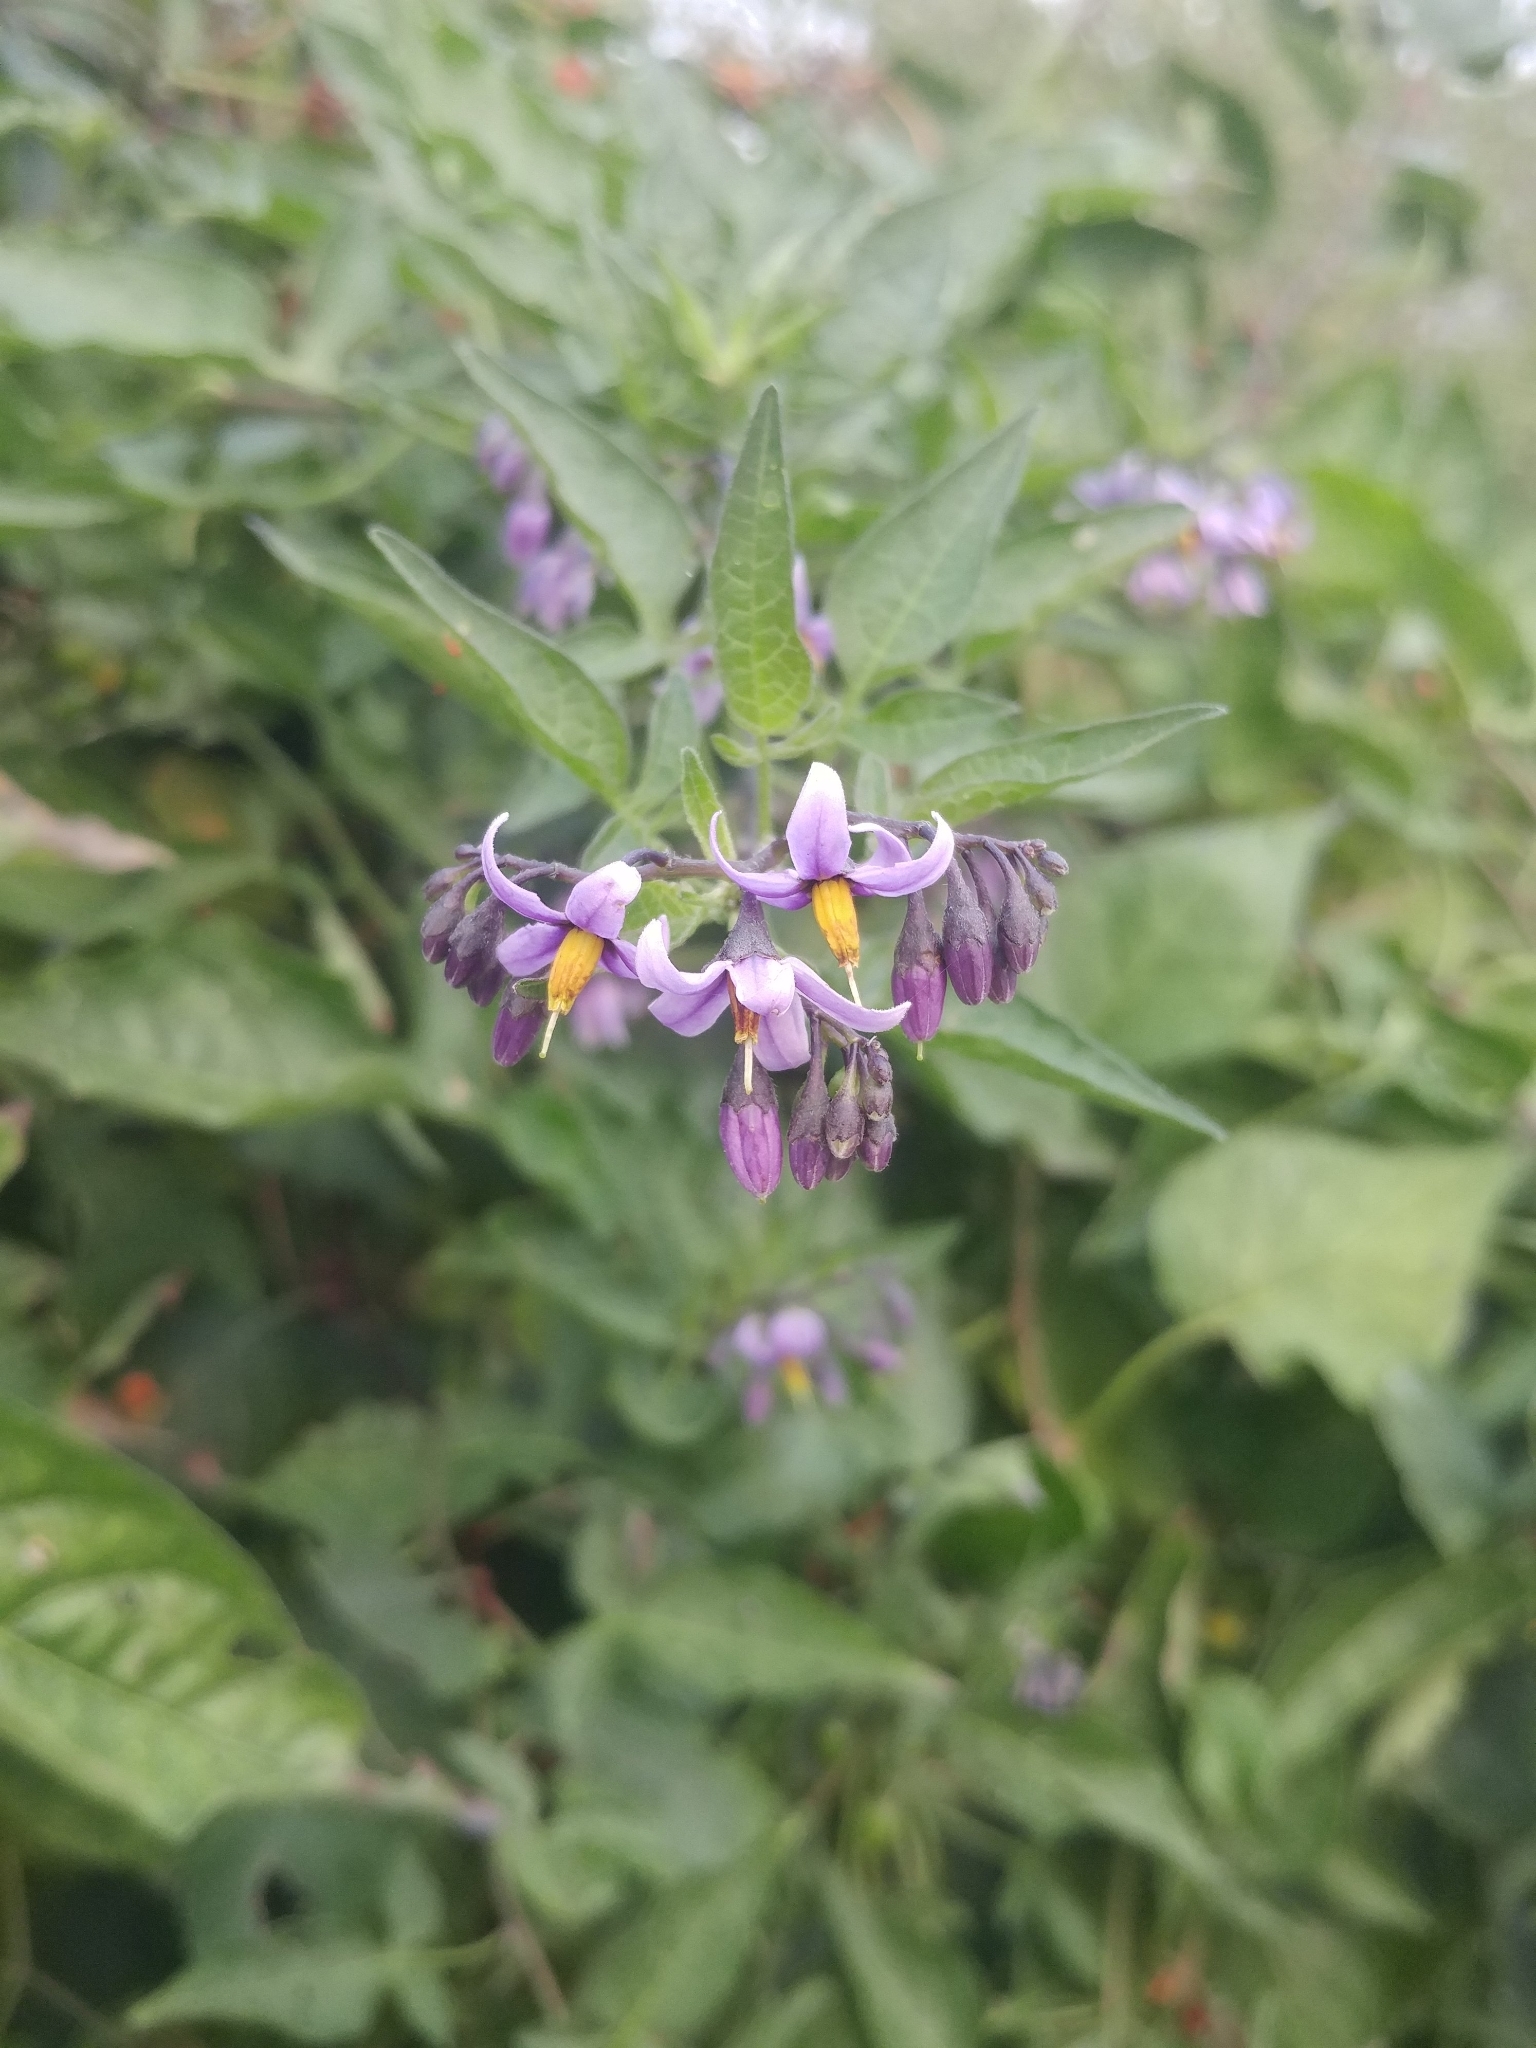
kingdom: Plantae
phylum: Tracheophyta
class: Magnoliopsida
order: Solanales
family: Solanaceae
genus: Solanum
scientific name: Solanum dulcamara
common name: Climbing nightshade
